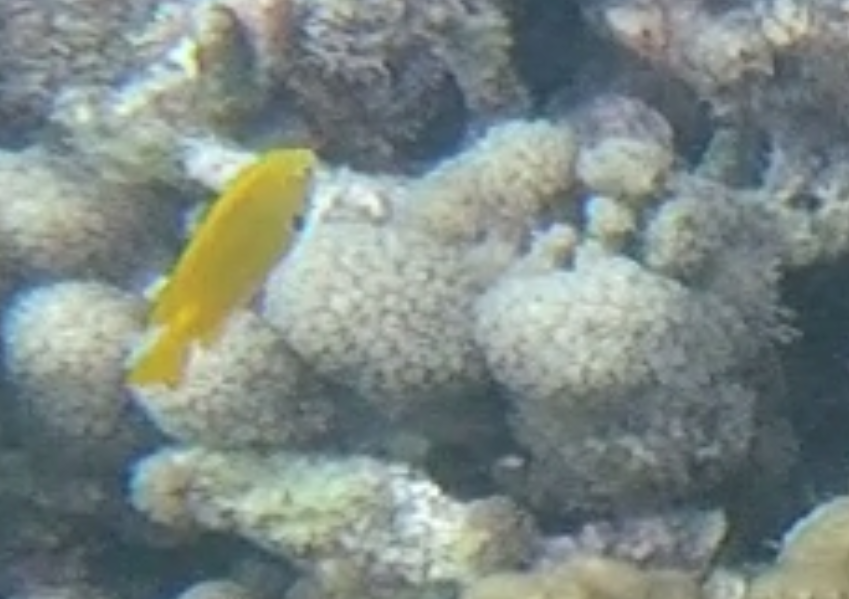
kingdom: Animalia
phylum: Chordata
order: Perciformes
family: Pomacentridae
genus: Pomacentrus
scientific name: Pomacentrus sulfureus
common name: Sulfur damsel
